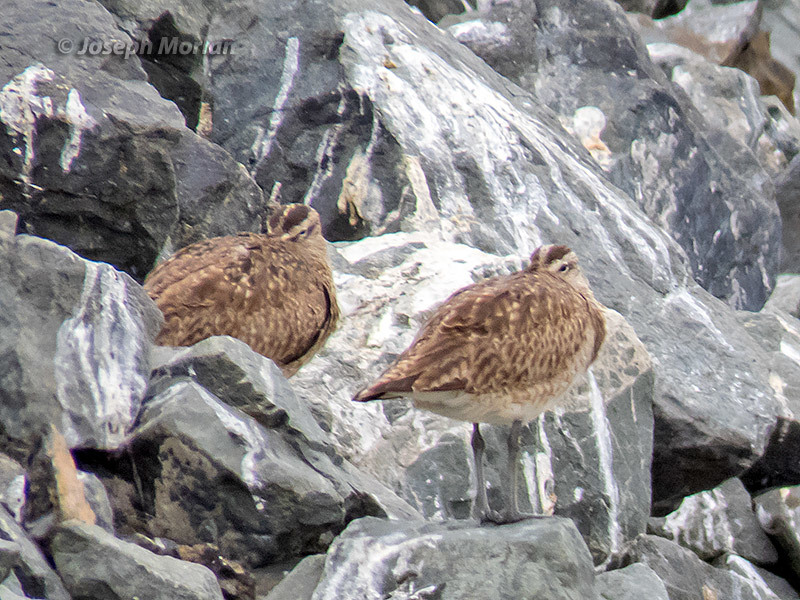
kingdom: Animalia
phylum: Chordata
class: Aves
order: Charadriiformes
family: Scolopacidae
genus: Numenius
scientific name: Numenius phaeopus
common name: Whimbrel
